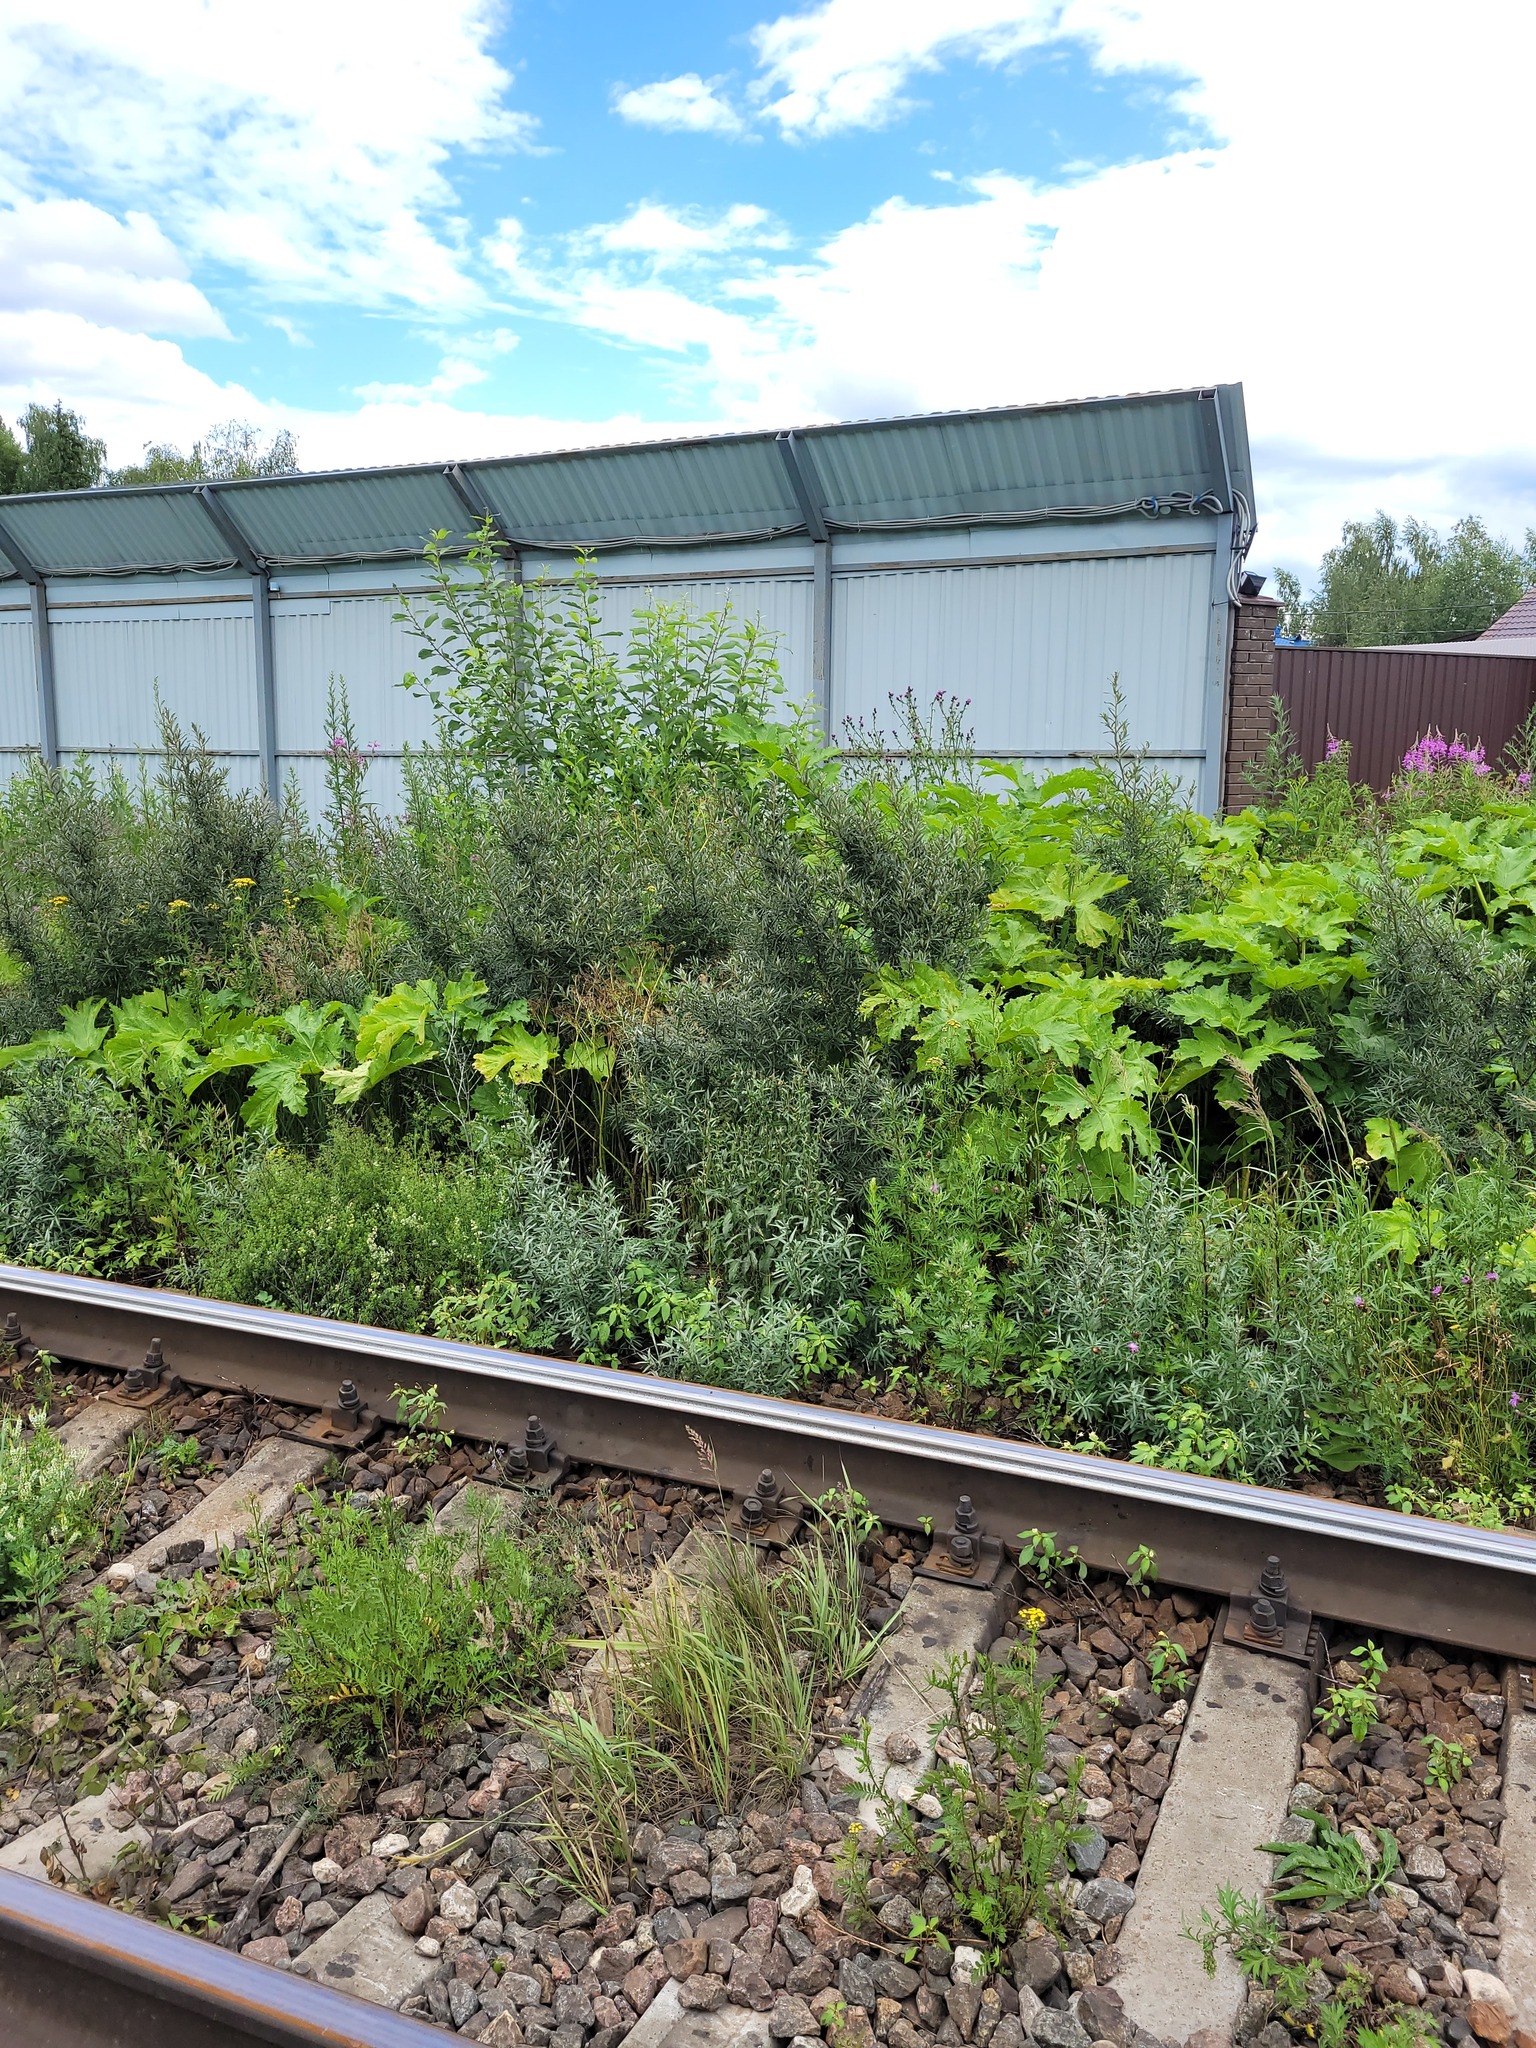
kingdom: Plantae
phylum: Tracheophyta
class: Magnoliopsida
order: Rosales
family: Elaeagnaceae
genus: Hippophae
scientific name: Hippophae rhamnoides
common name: Sea-buckthorn
